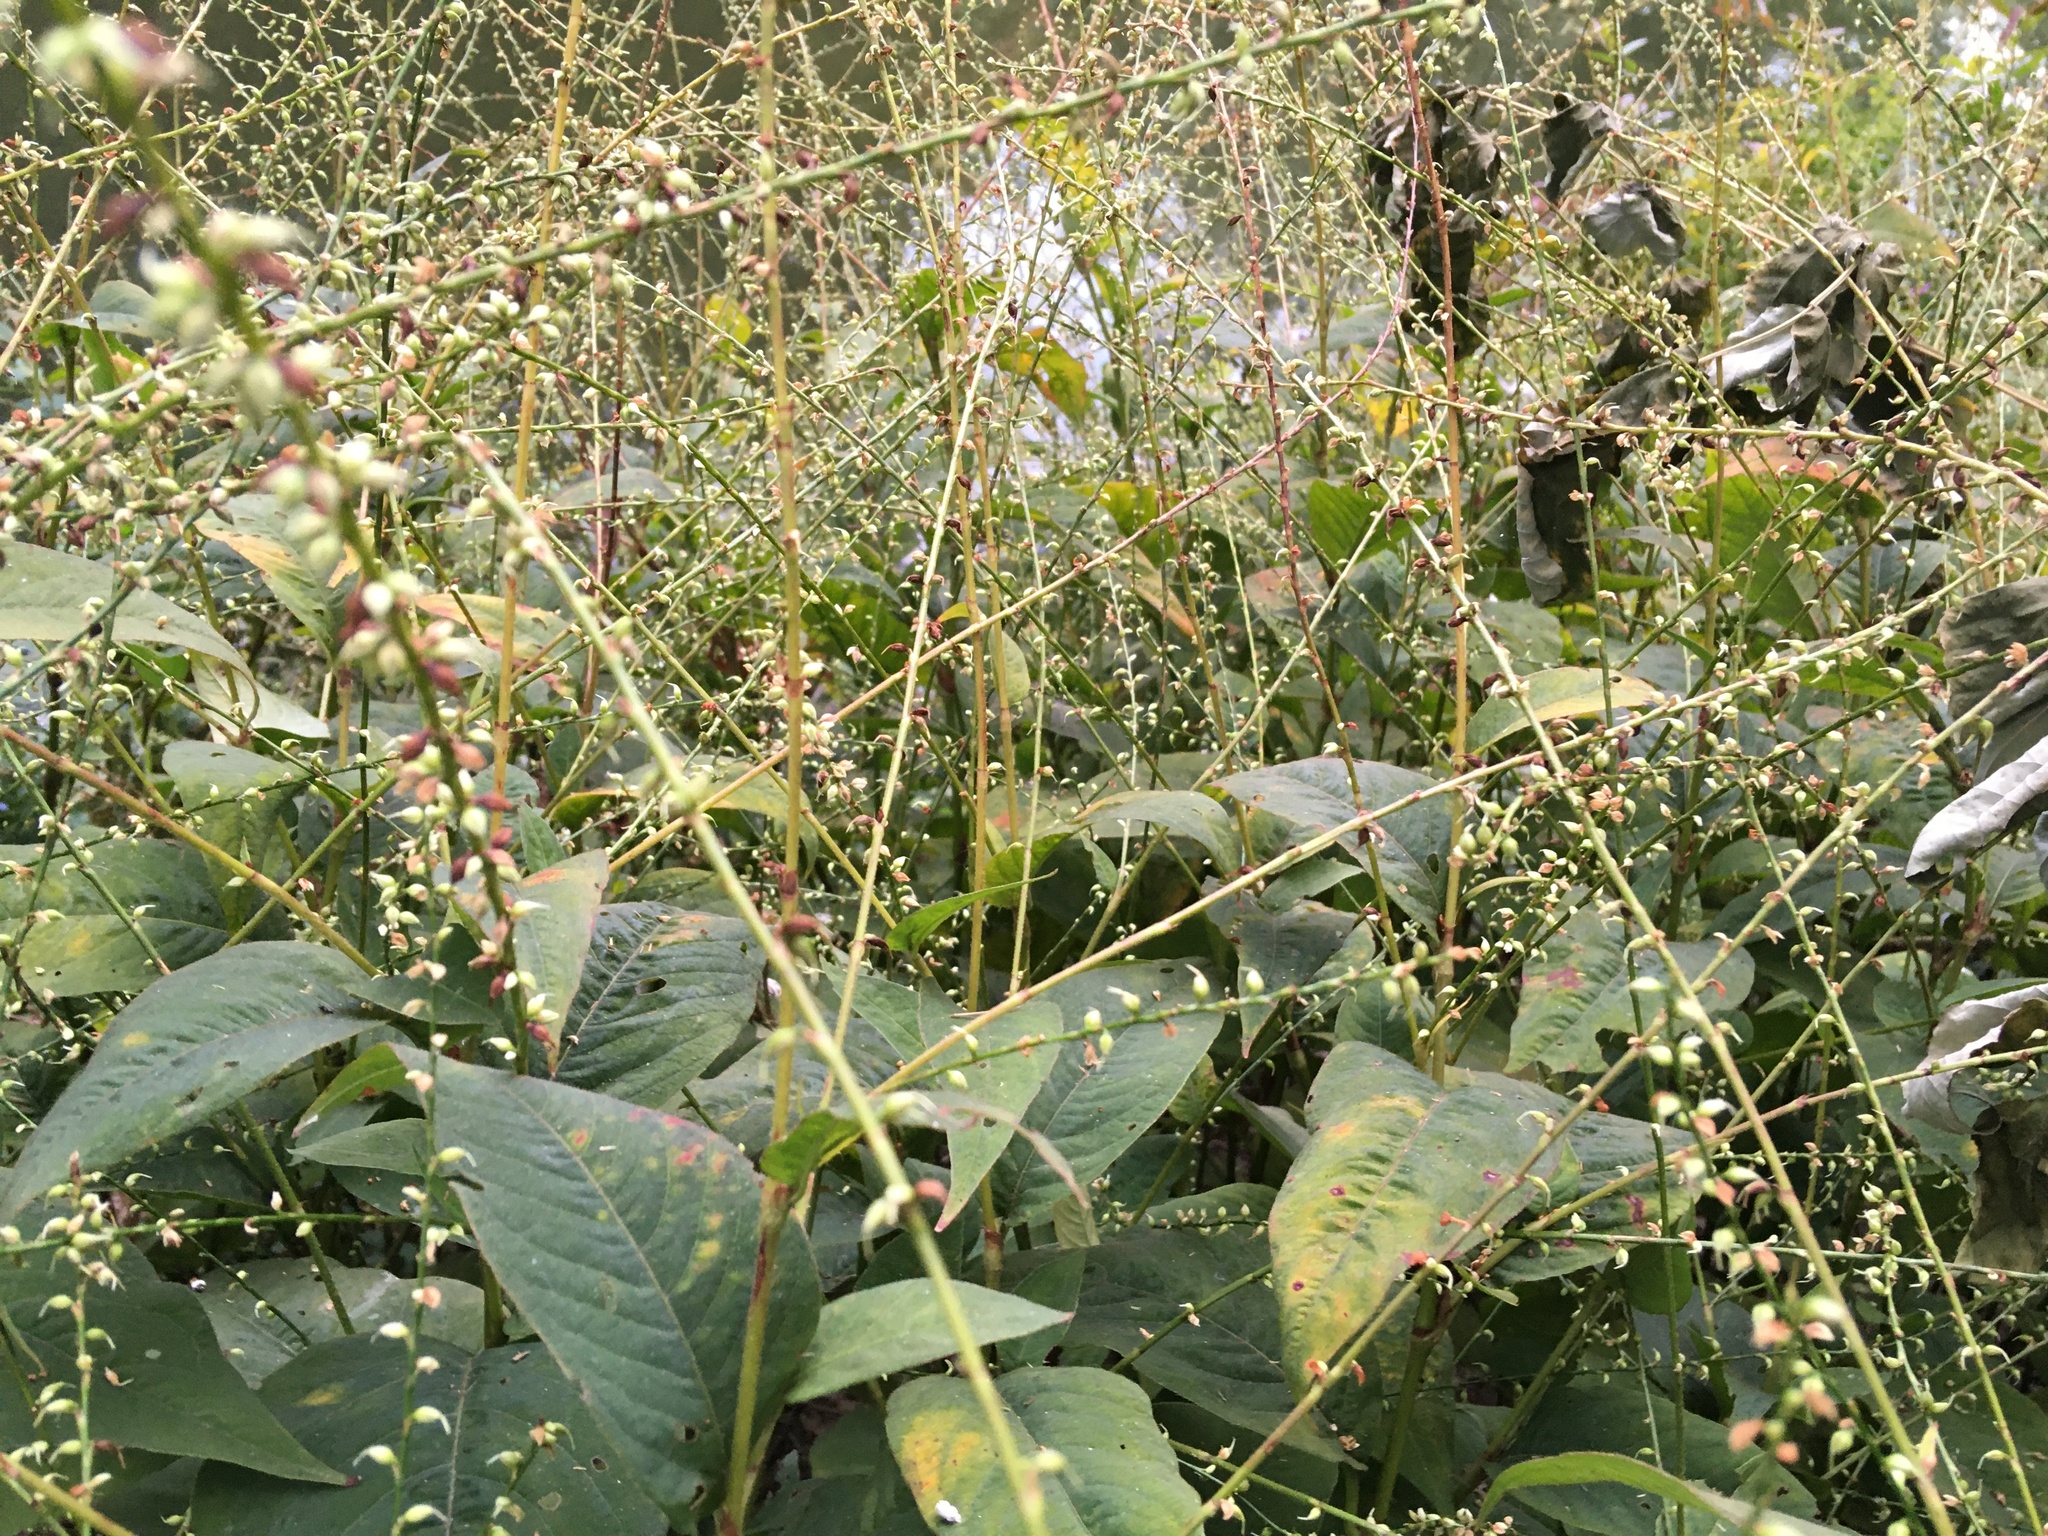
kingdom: Plantae
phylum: Tracheophyta
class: Magnoliopsida
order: Caryophyllales
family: Polygonaceae
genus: Persicaria
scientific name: Persicaria virginiana
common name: Jumpseed
